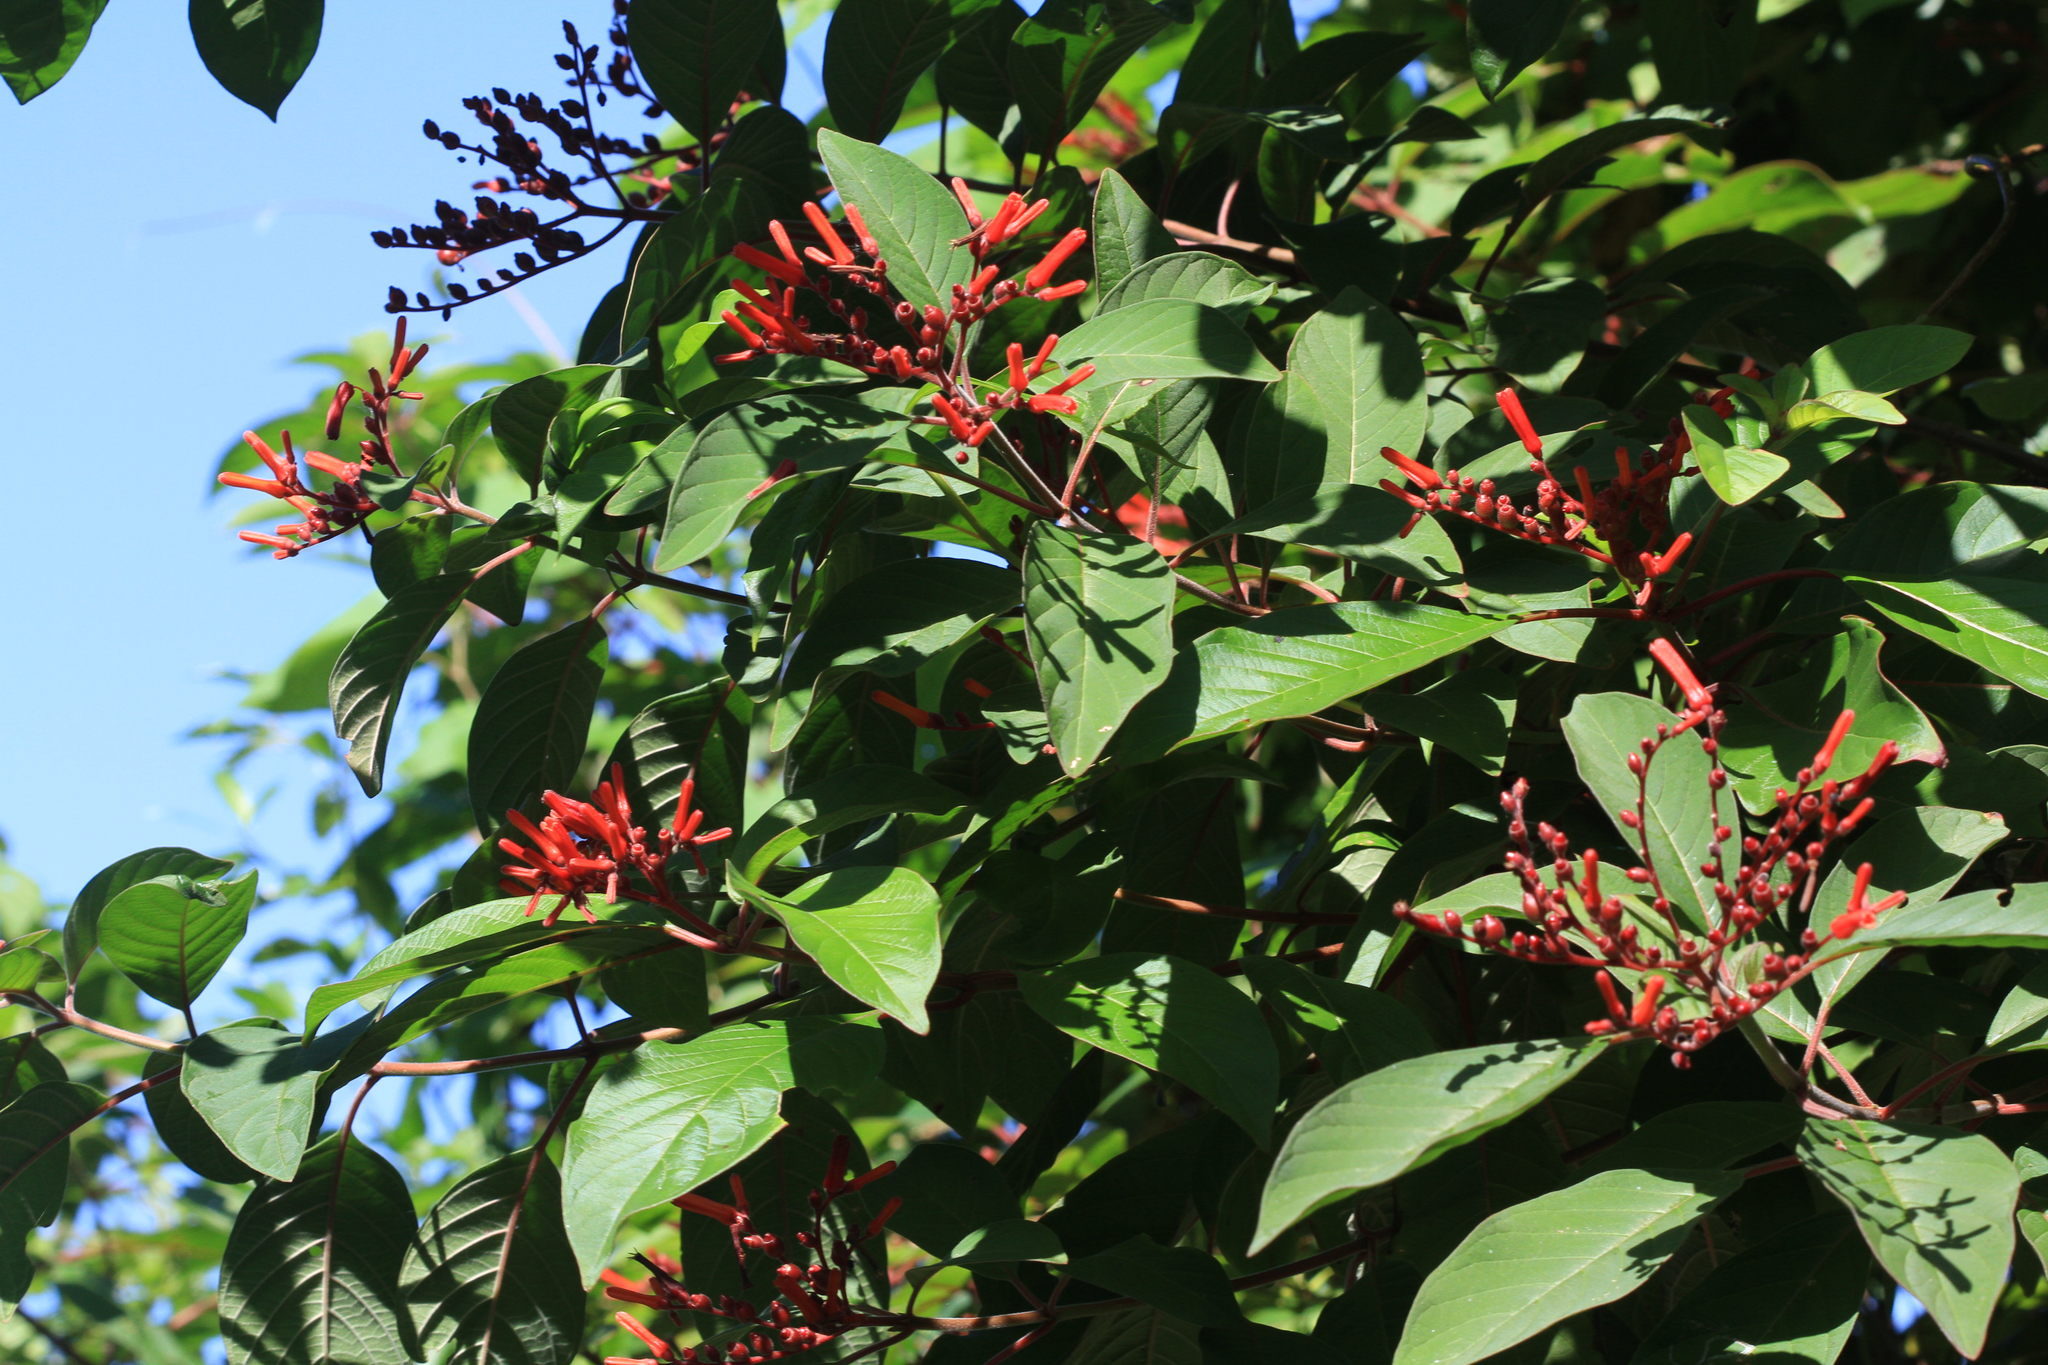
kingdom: Plantae
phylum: Tracheophyta
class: Magnoliopsida
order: Gentianales
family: Rubiaceae
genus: Hamelia
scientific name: Hamelia patens
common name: Redhead
